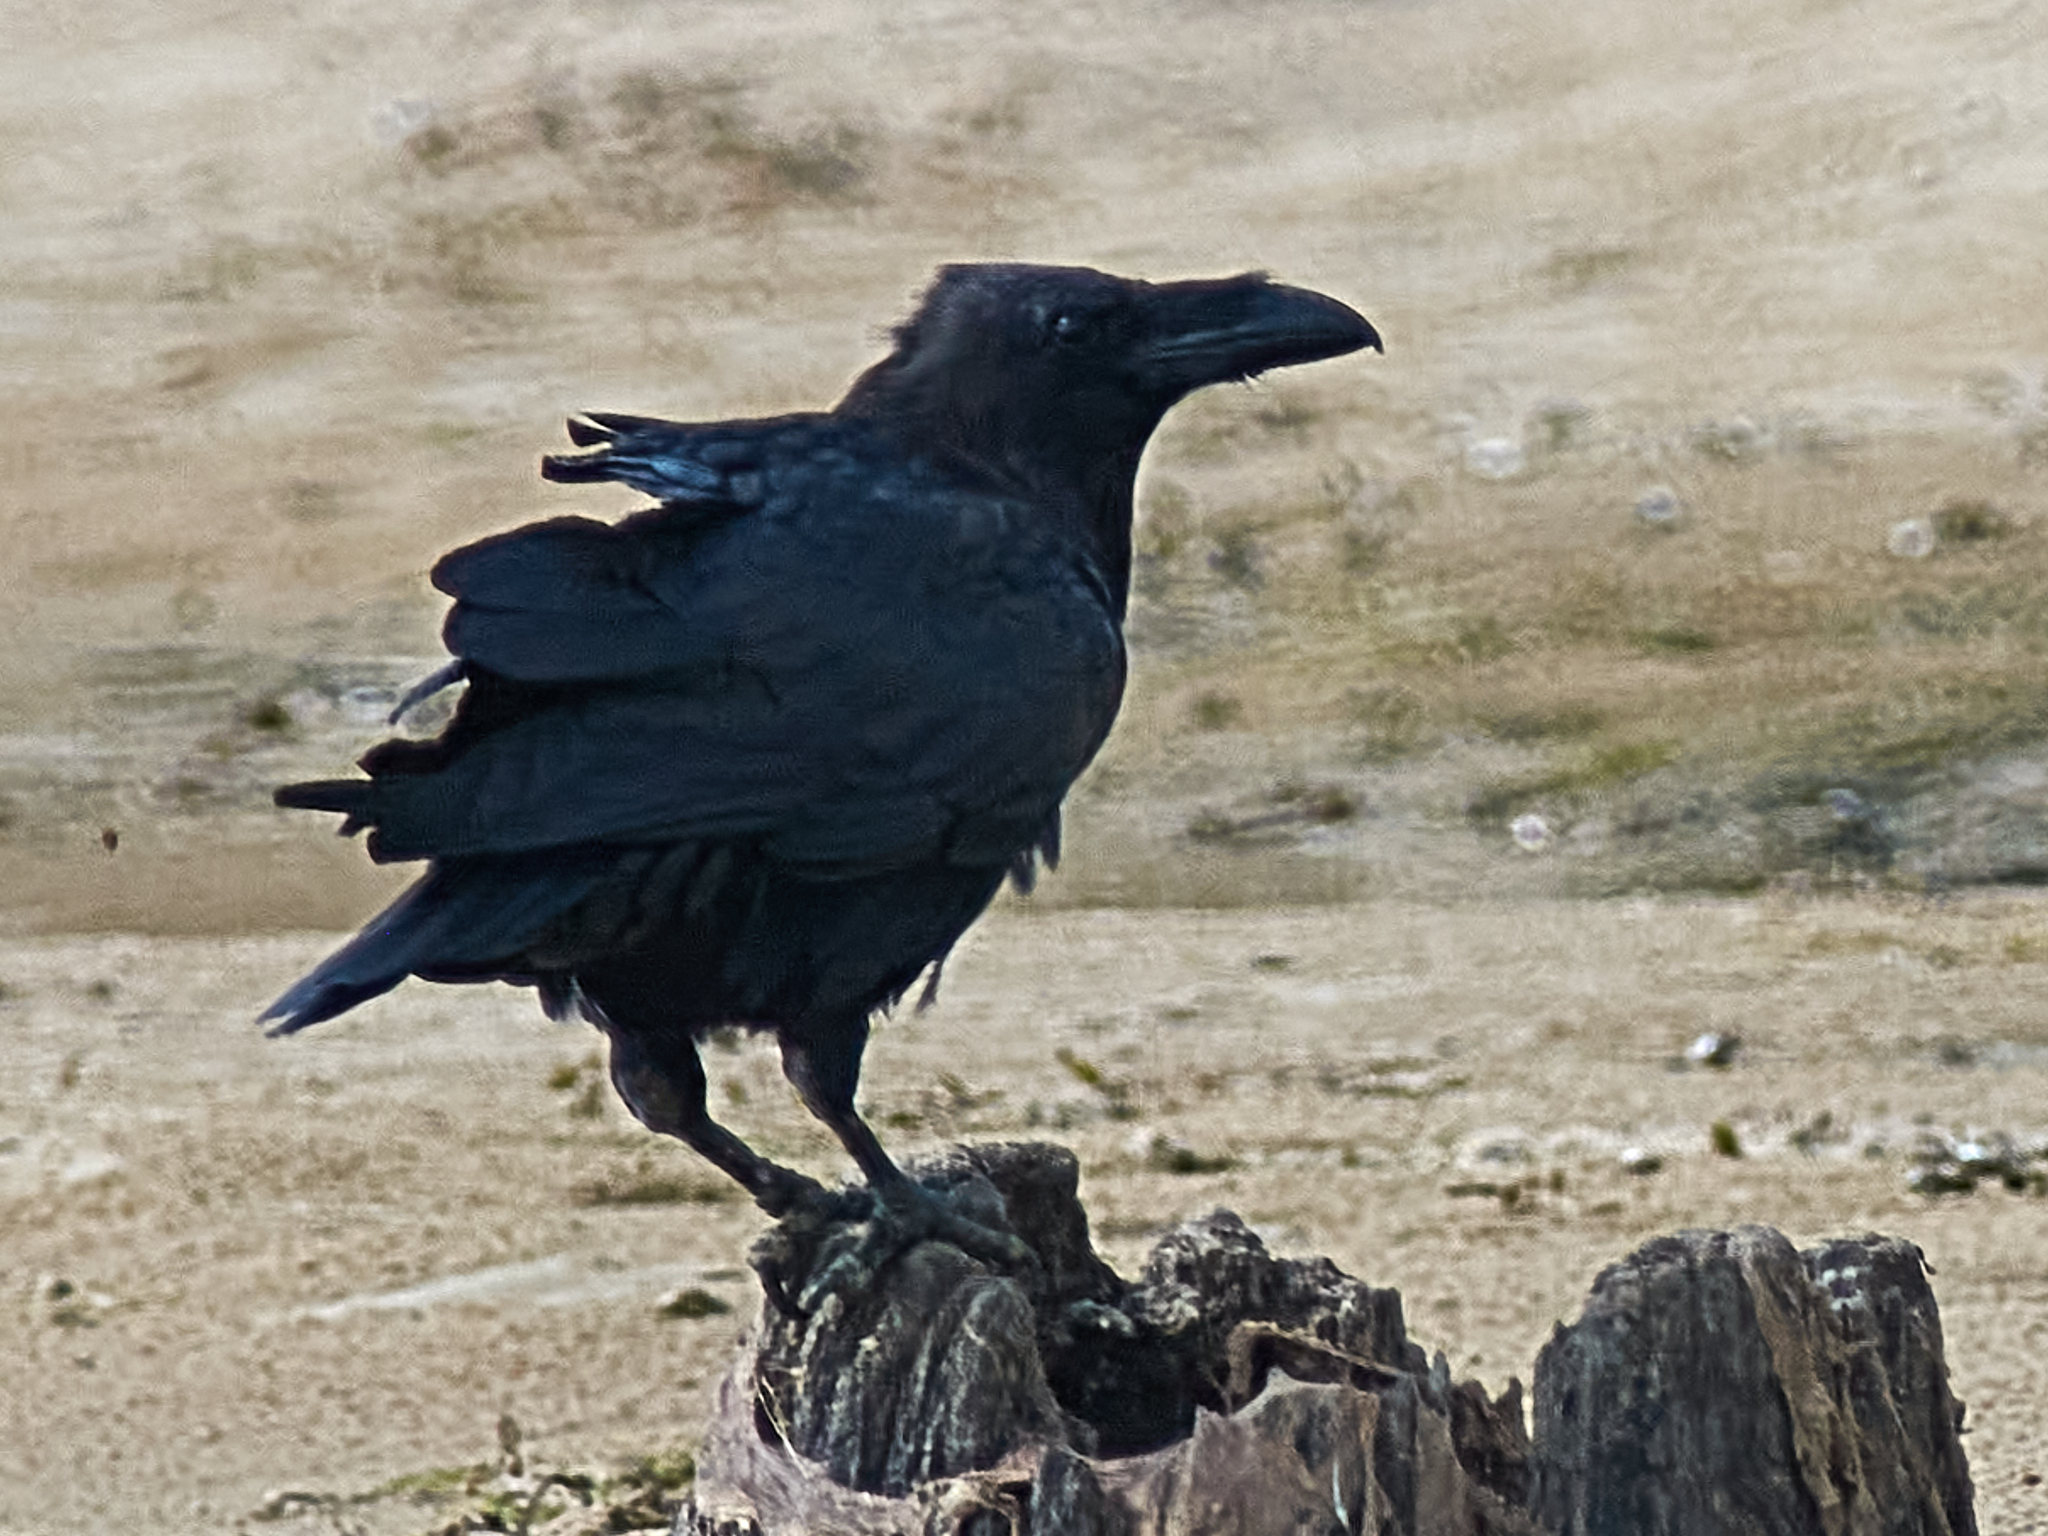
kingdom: Animalia
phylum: Chordata
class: Aves
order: Passeriformes
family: Corvidae
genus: Corvus
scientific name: Corvus corax
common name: Common raven
